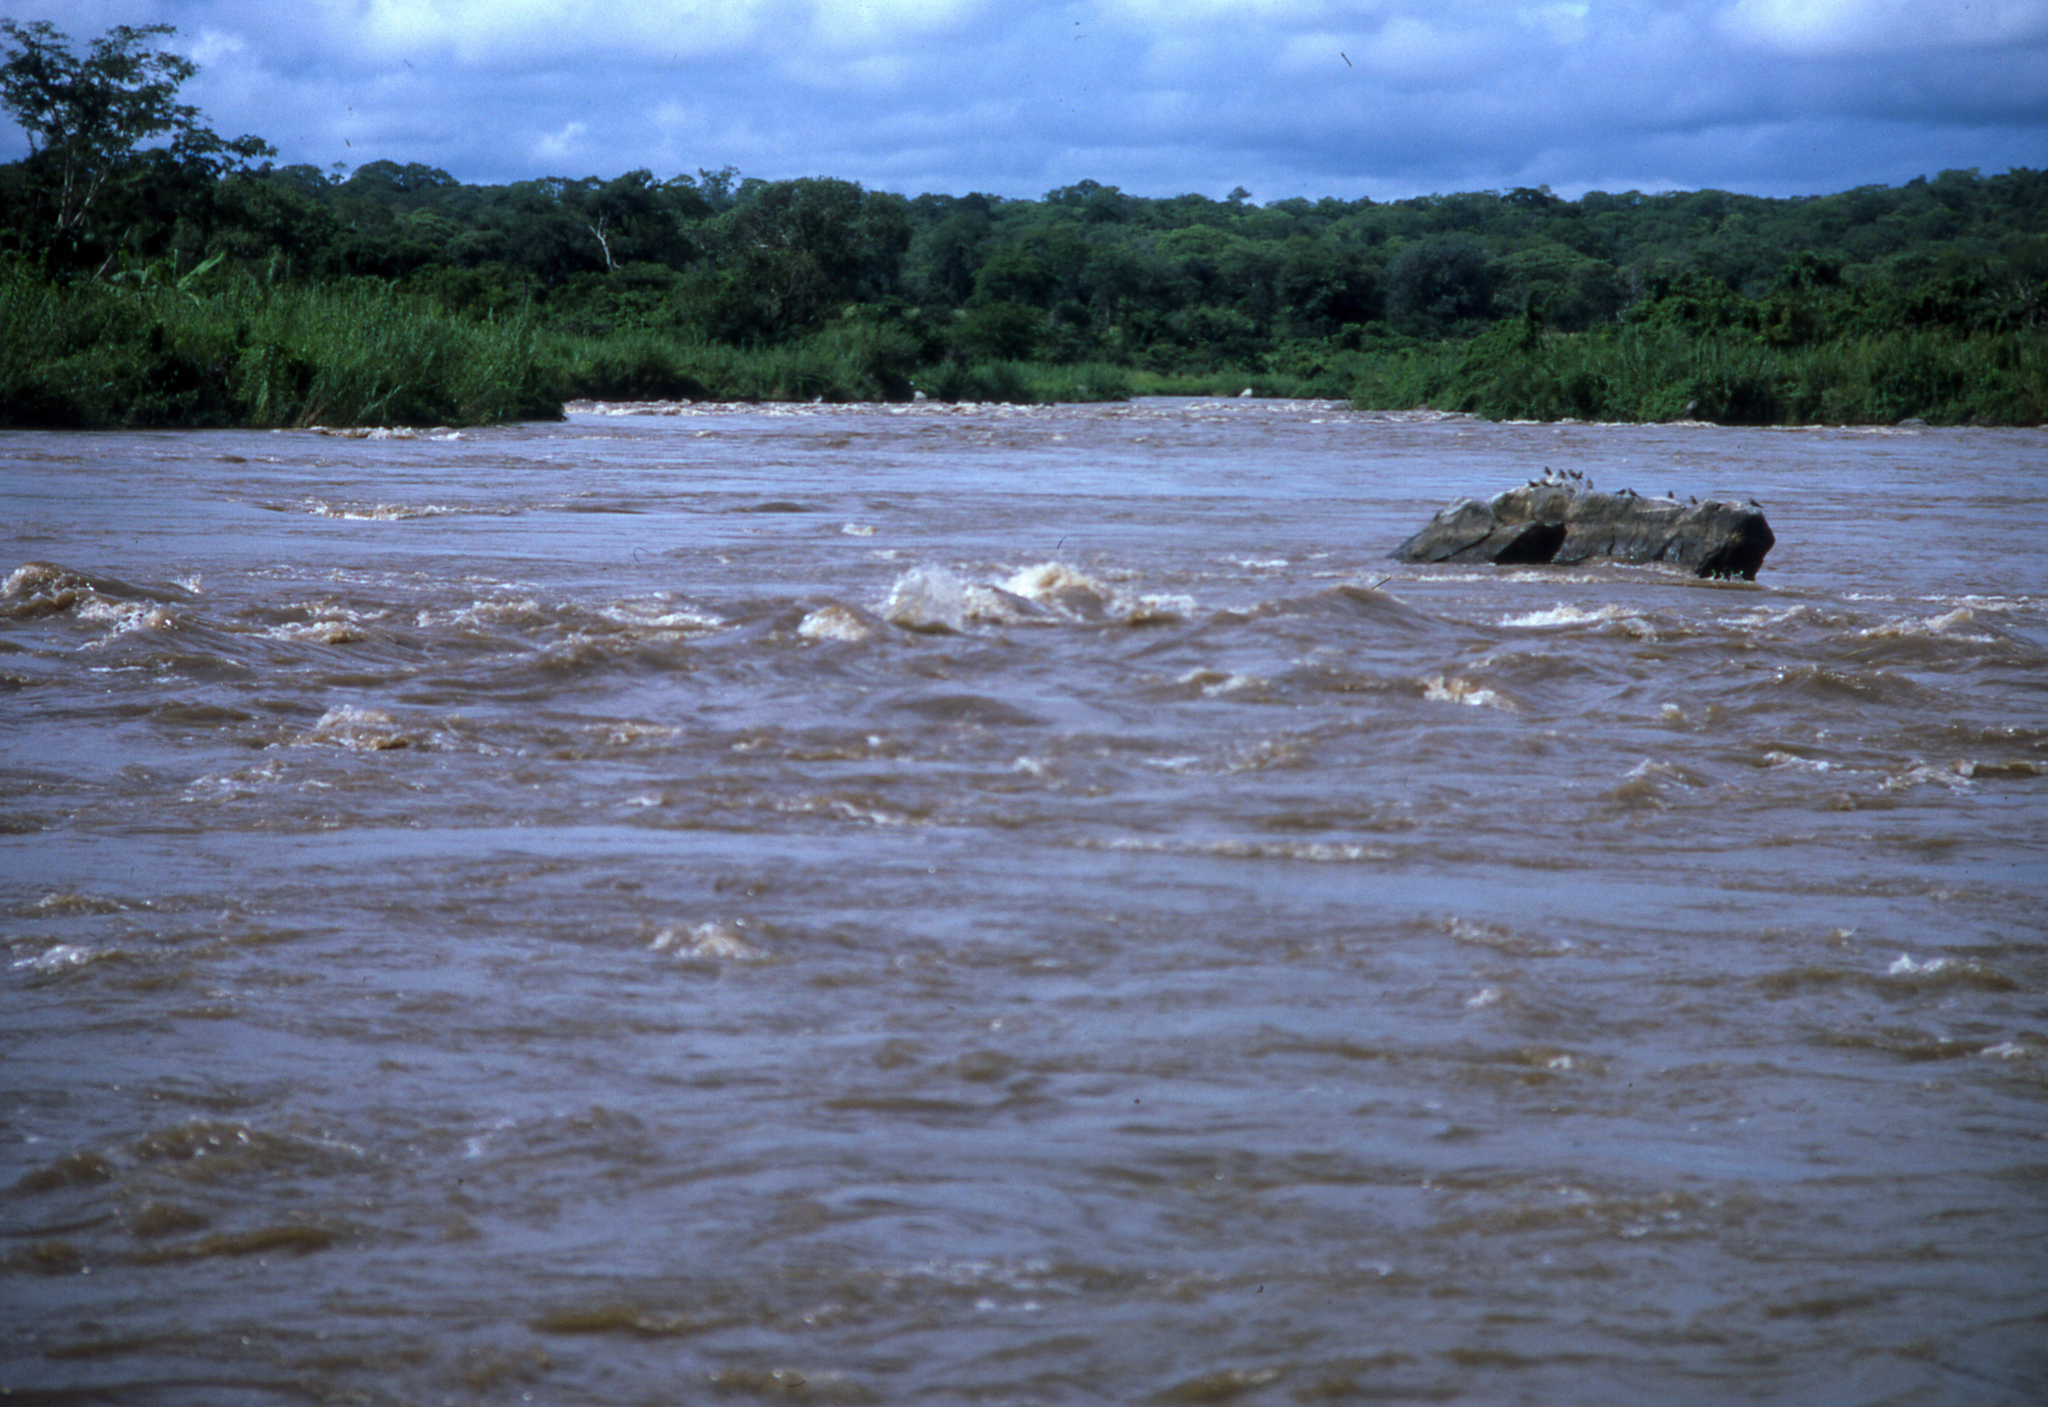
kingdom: Animalia
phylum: Chordata
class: Aves
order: Charadriiformes
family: Glareolidae
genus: Glareola
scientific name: Glareola nuchalis
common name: Rock pratincole
